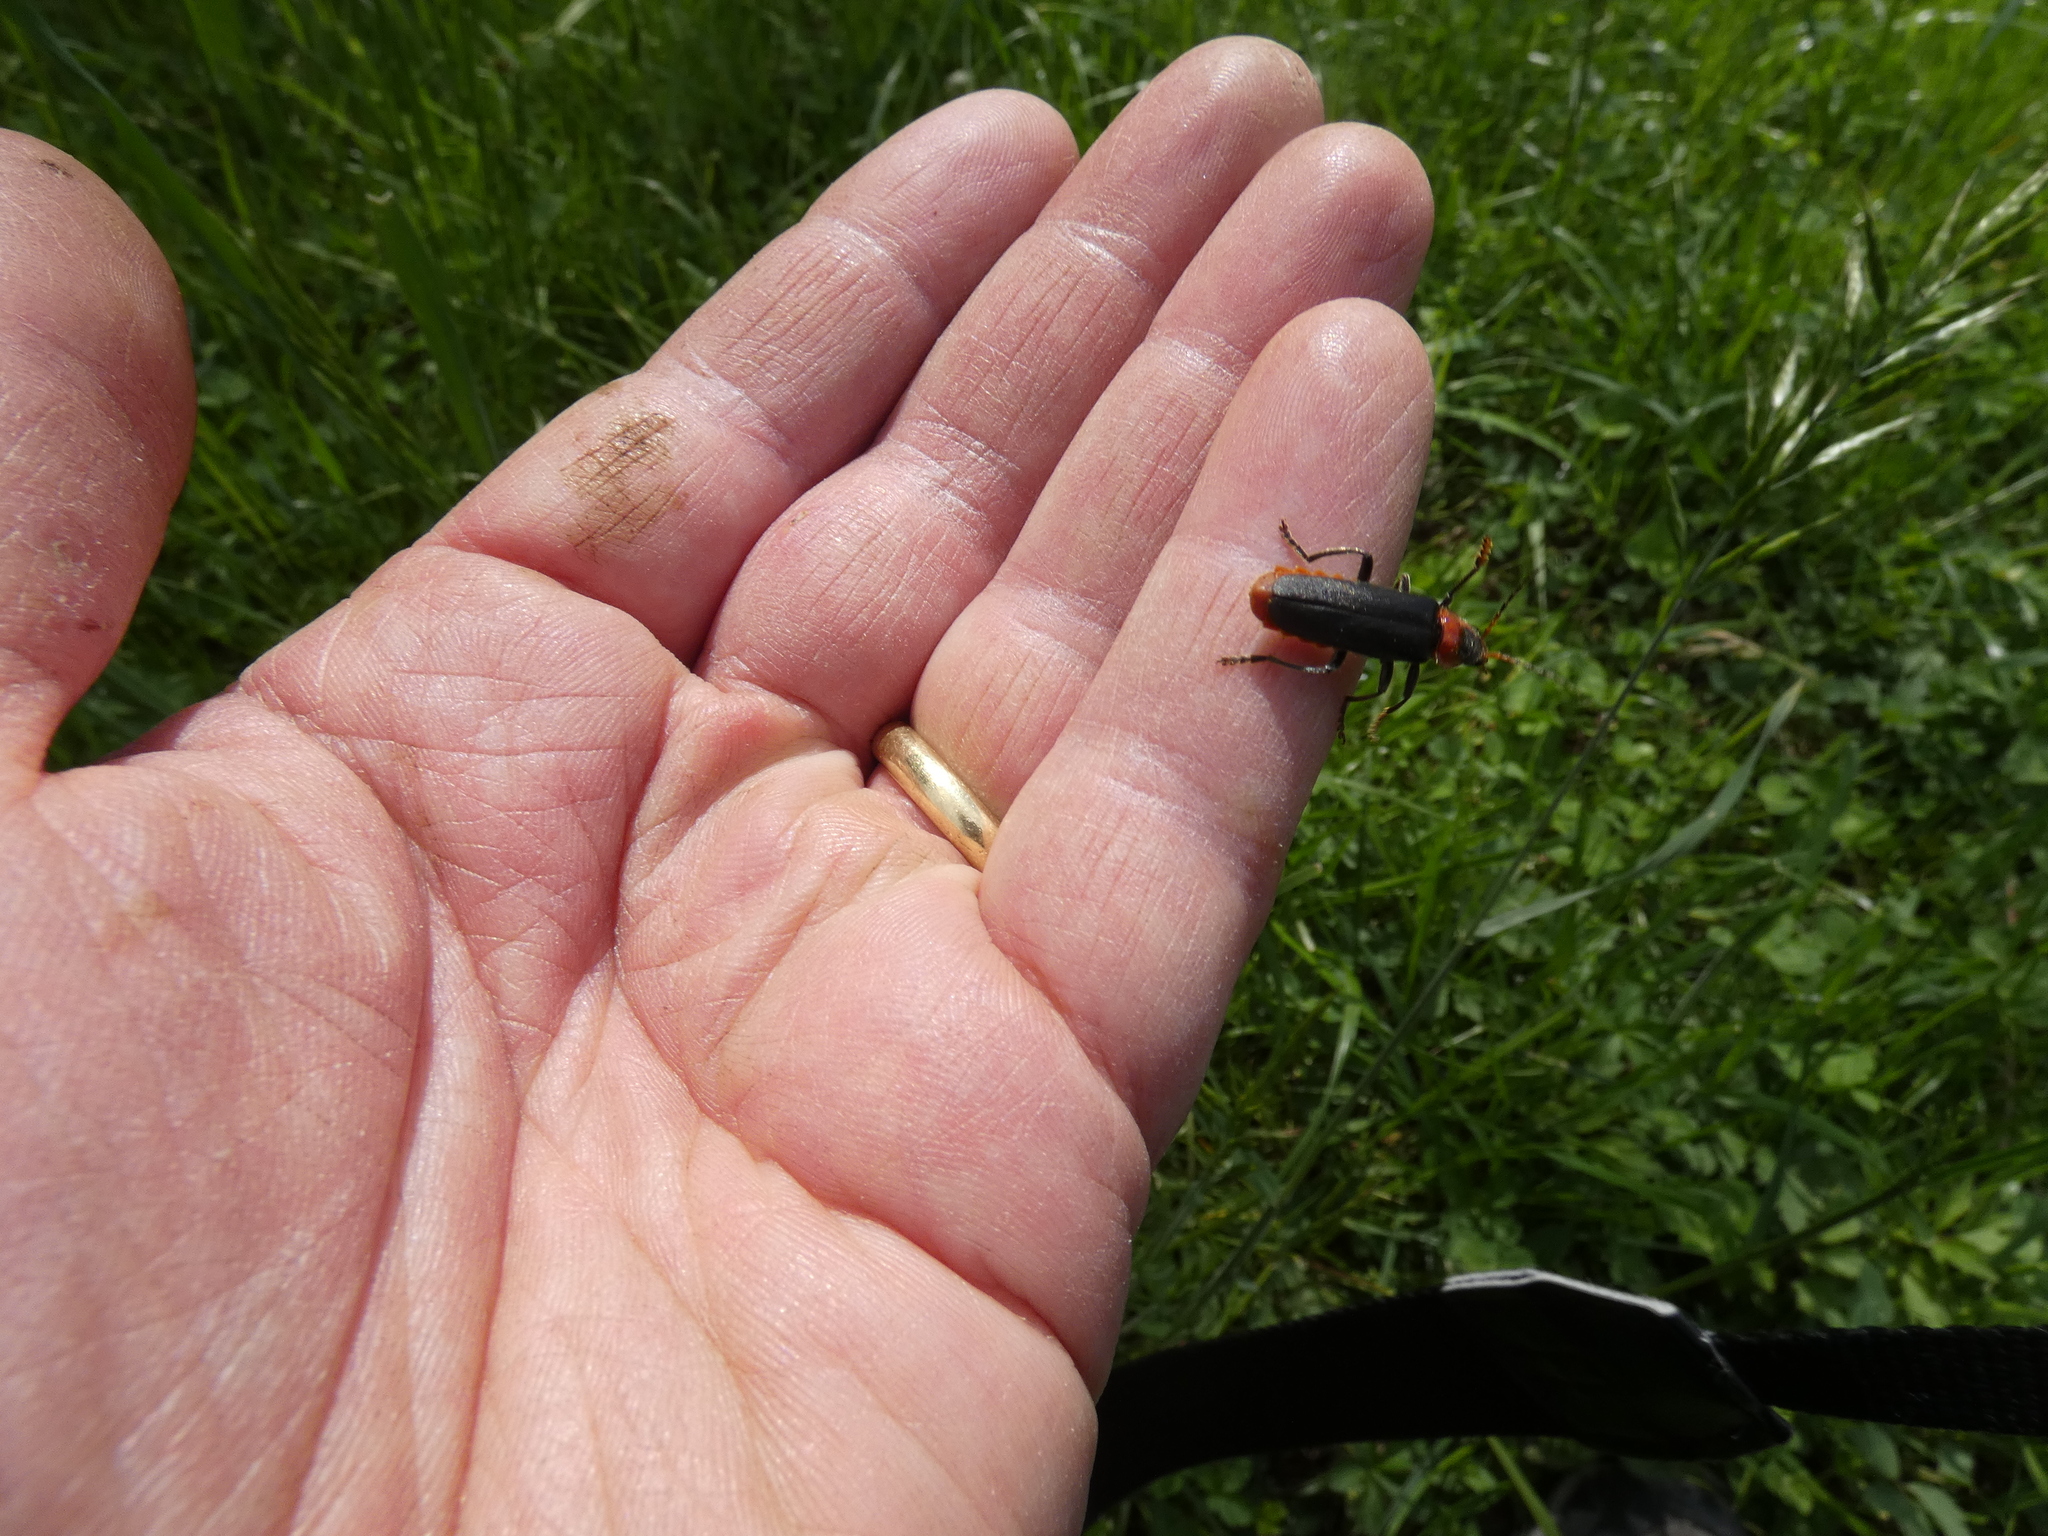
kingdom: Animalia
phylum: Arthropoda
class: Insecta
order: Coleoptera
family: Cantharidae
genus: Cantharis
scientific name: Cantharis fusca
